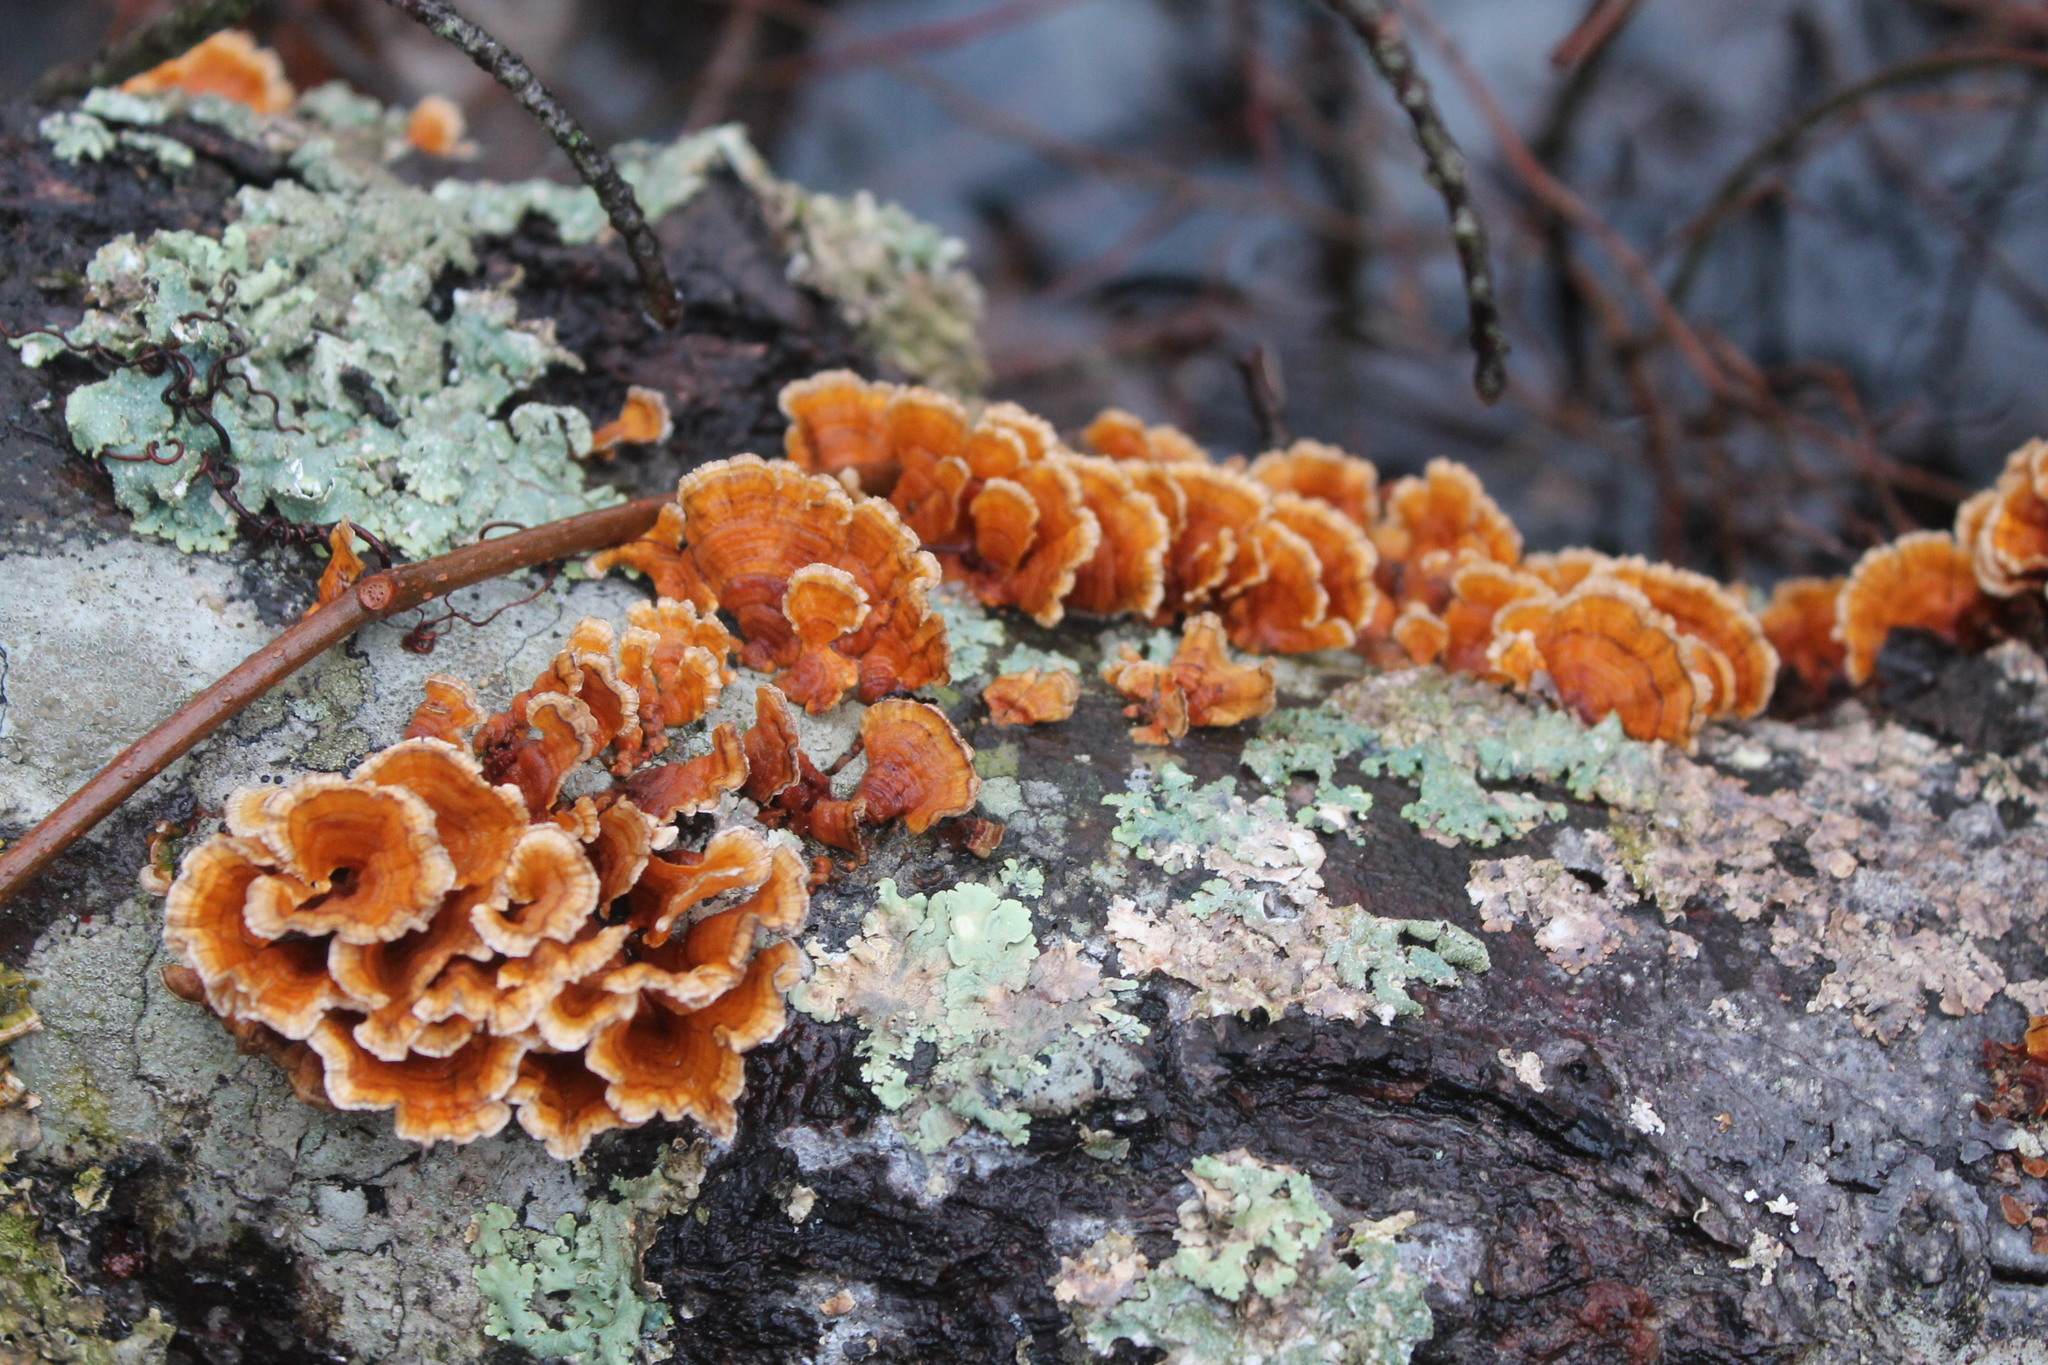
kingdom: Fungi
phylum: Basidiomycota
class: Agaricomycetes
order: Russulales
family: Stereaceae
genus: Stereum
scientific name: Stereum complicatum
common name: Crowded parchment
